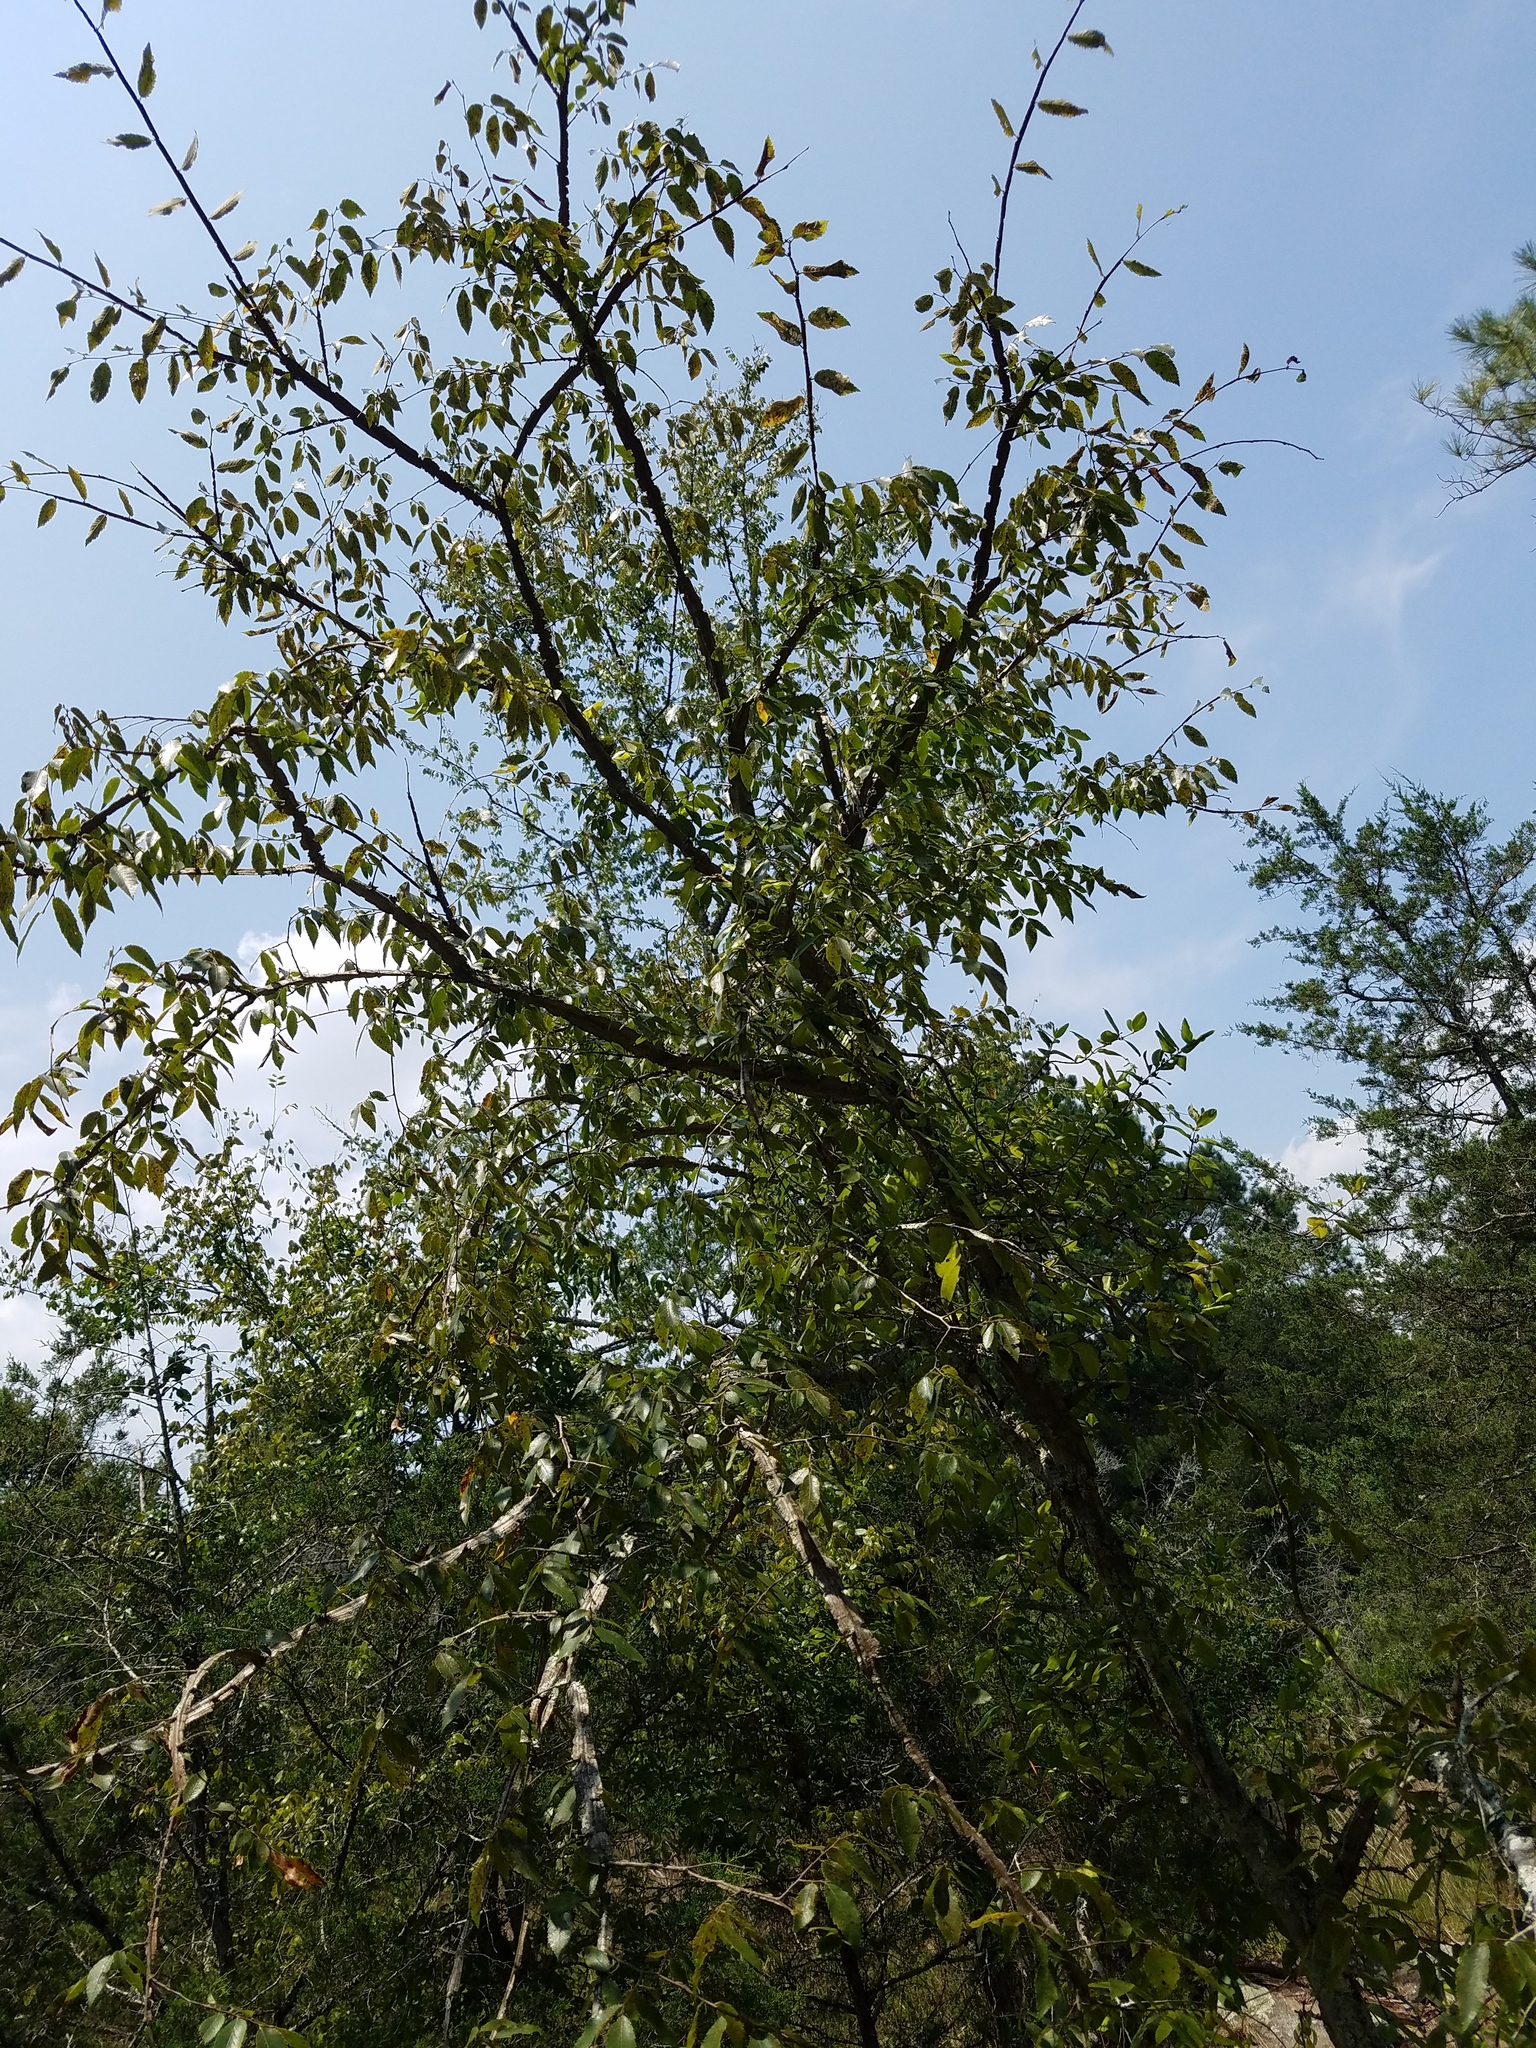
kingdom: Plantae
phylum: Tracheophyta
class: Magnoliopsida
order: Rosales
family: Ulmaceae
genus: Ulmus
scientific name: Ulmus alata
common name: Winged elm
